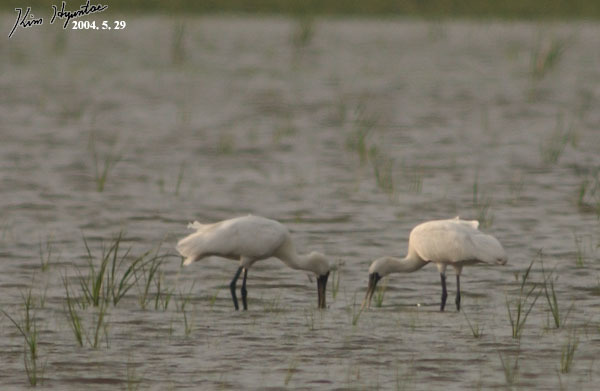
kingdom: Animalia
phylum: Chordata
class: Aves
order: Pelecaniformes
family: Threskiornithidae
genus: Platalea
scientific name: Platalea minor
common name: Black-faced spoonbill
